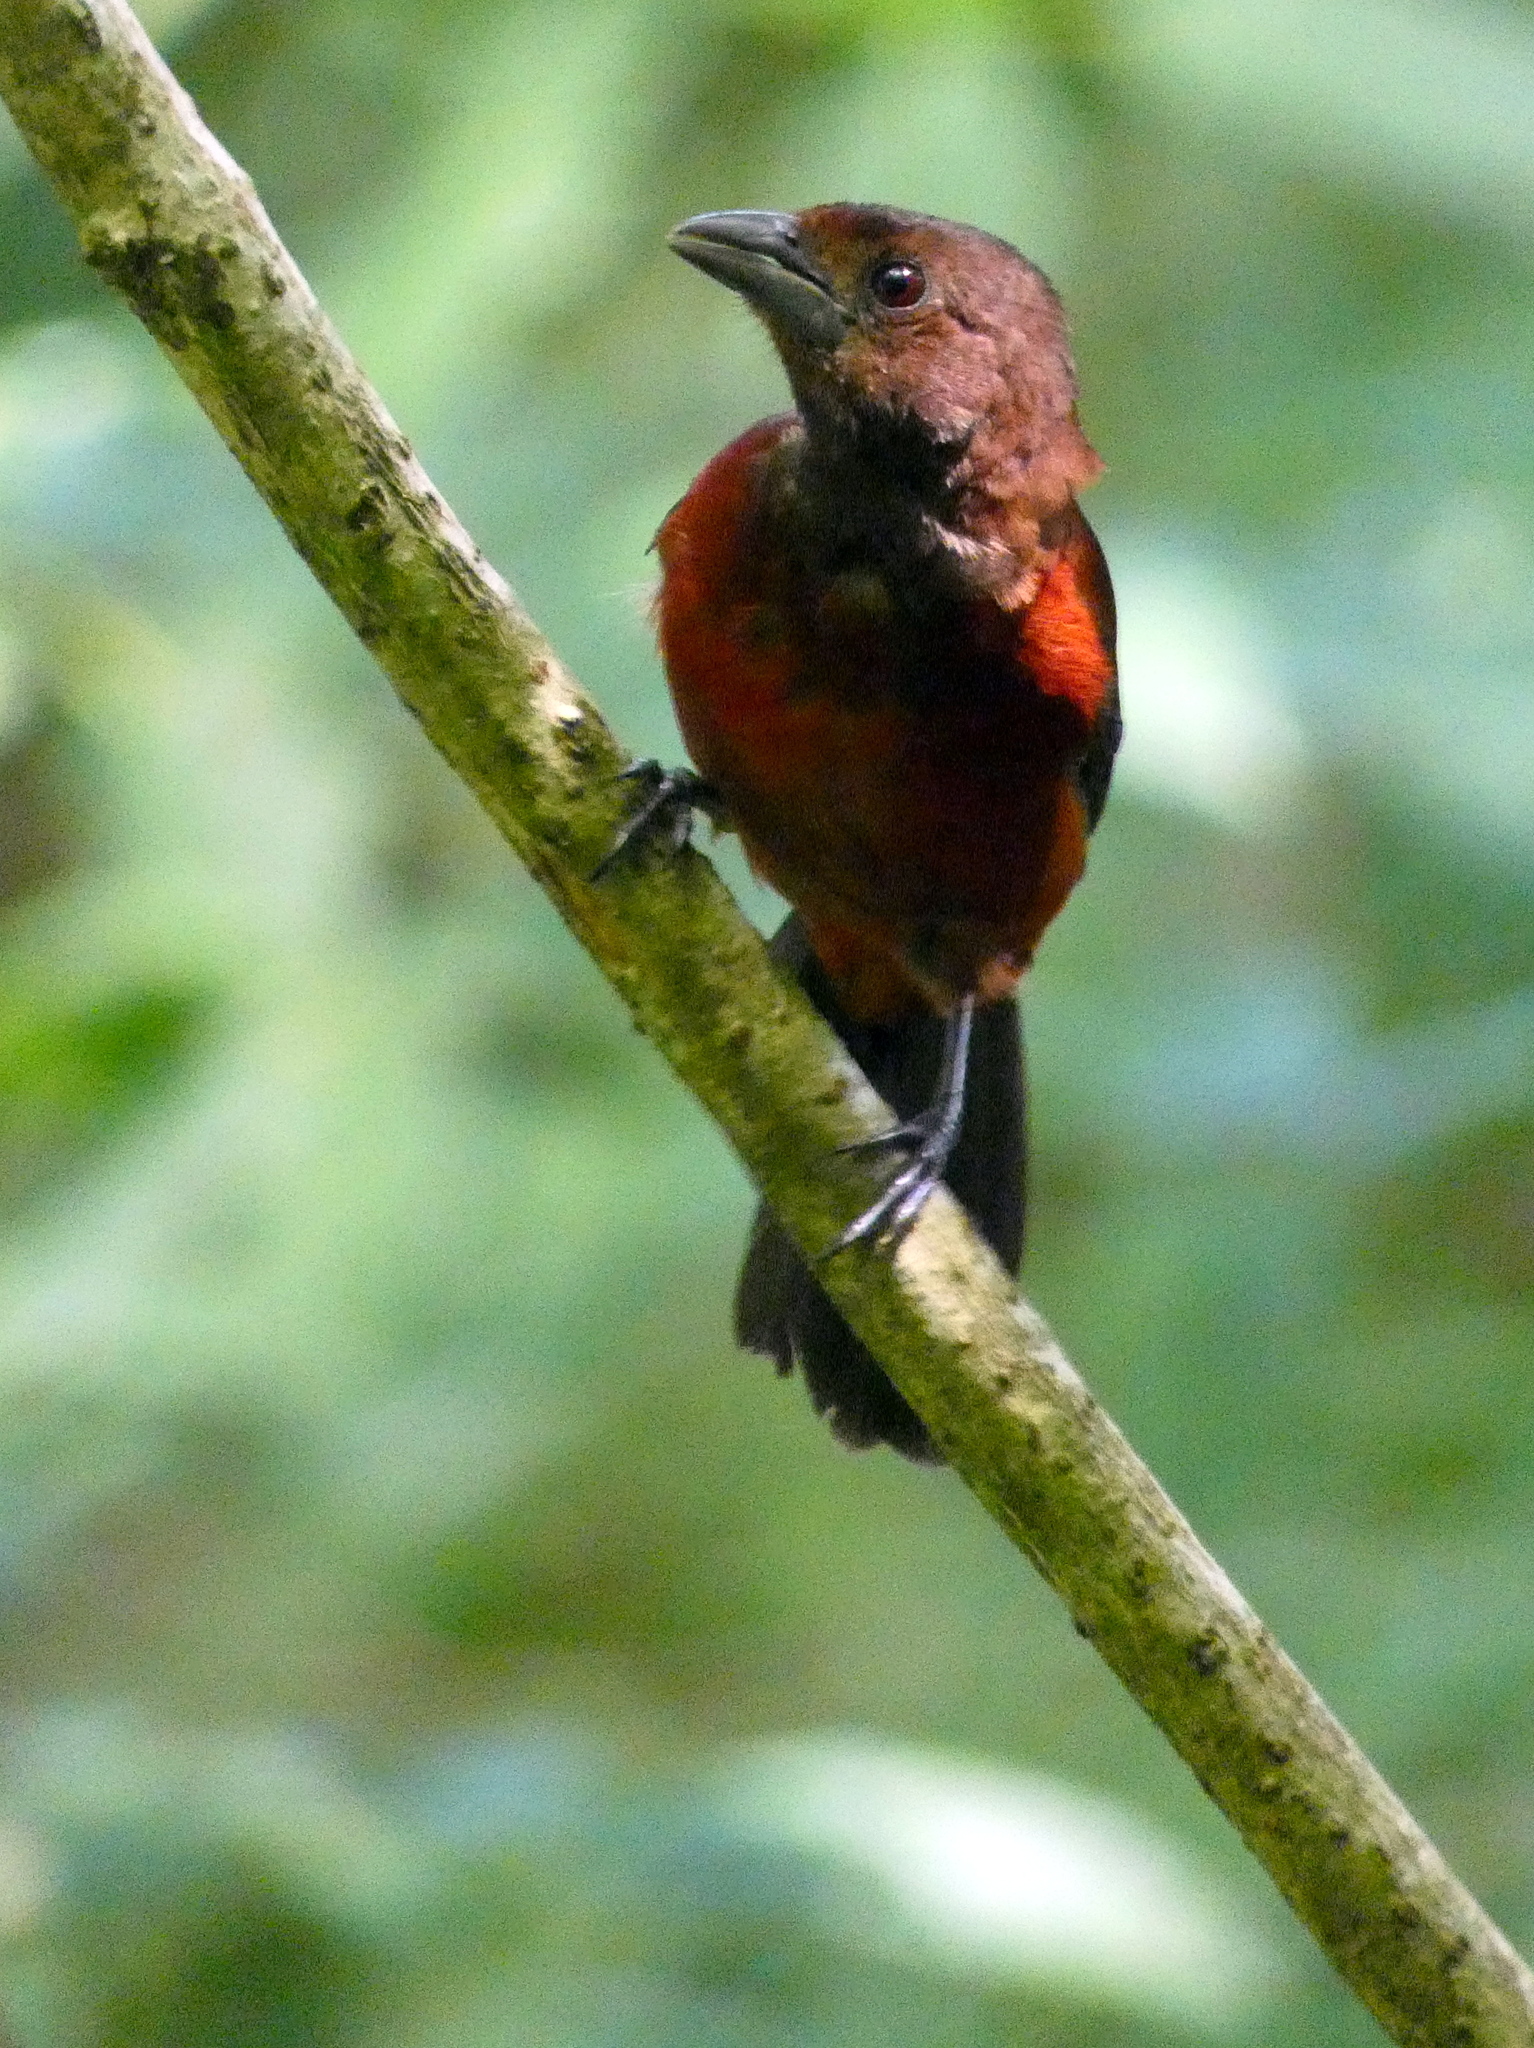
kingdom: Animalia
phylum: Chordata
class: Aves
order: Passeriformes
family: Thraupidae
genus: Ramphocelus
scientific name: Ramphocelus dimidiatus
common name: Crimson-backed tanager
